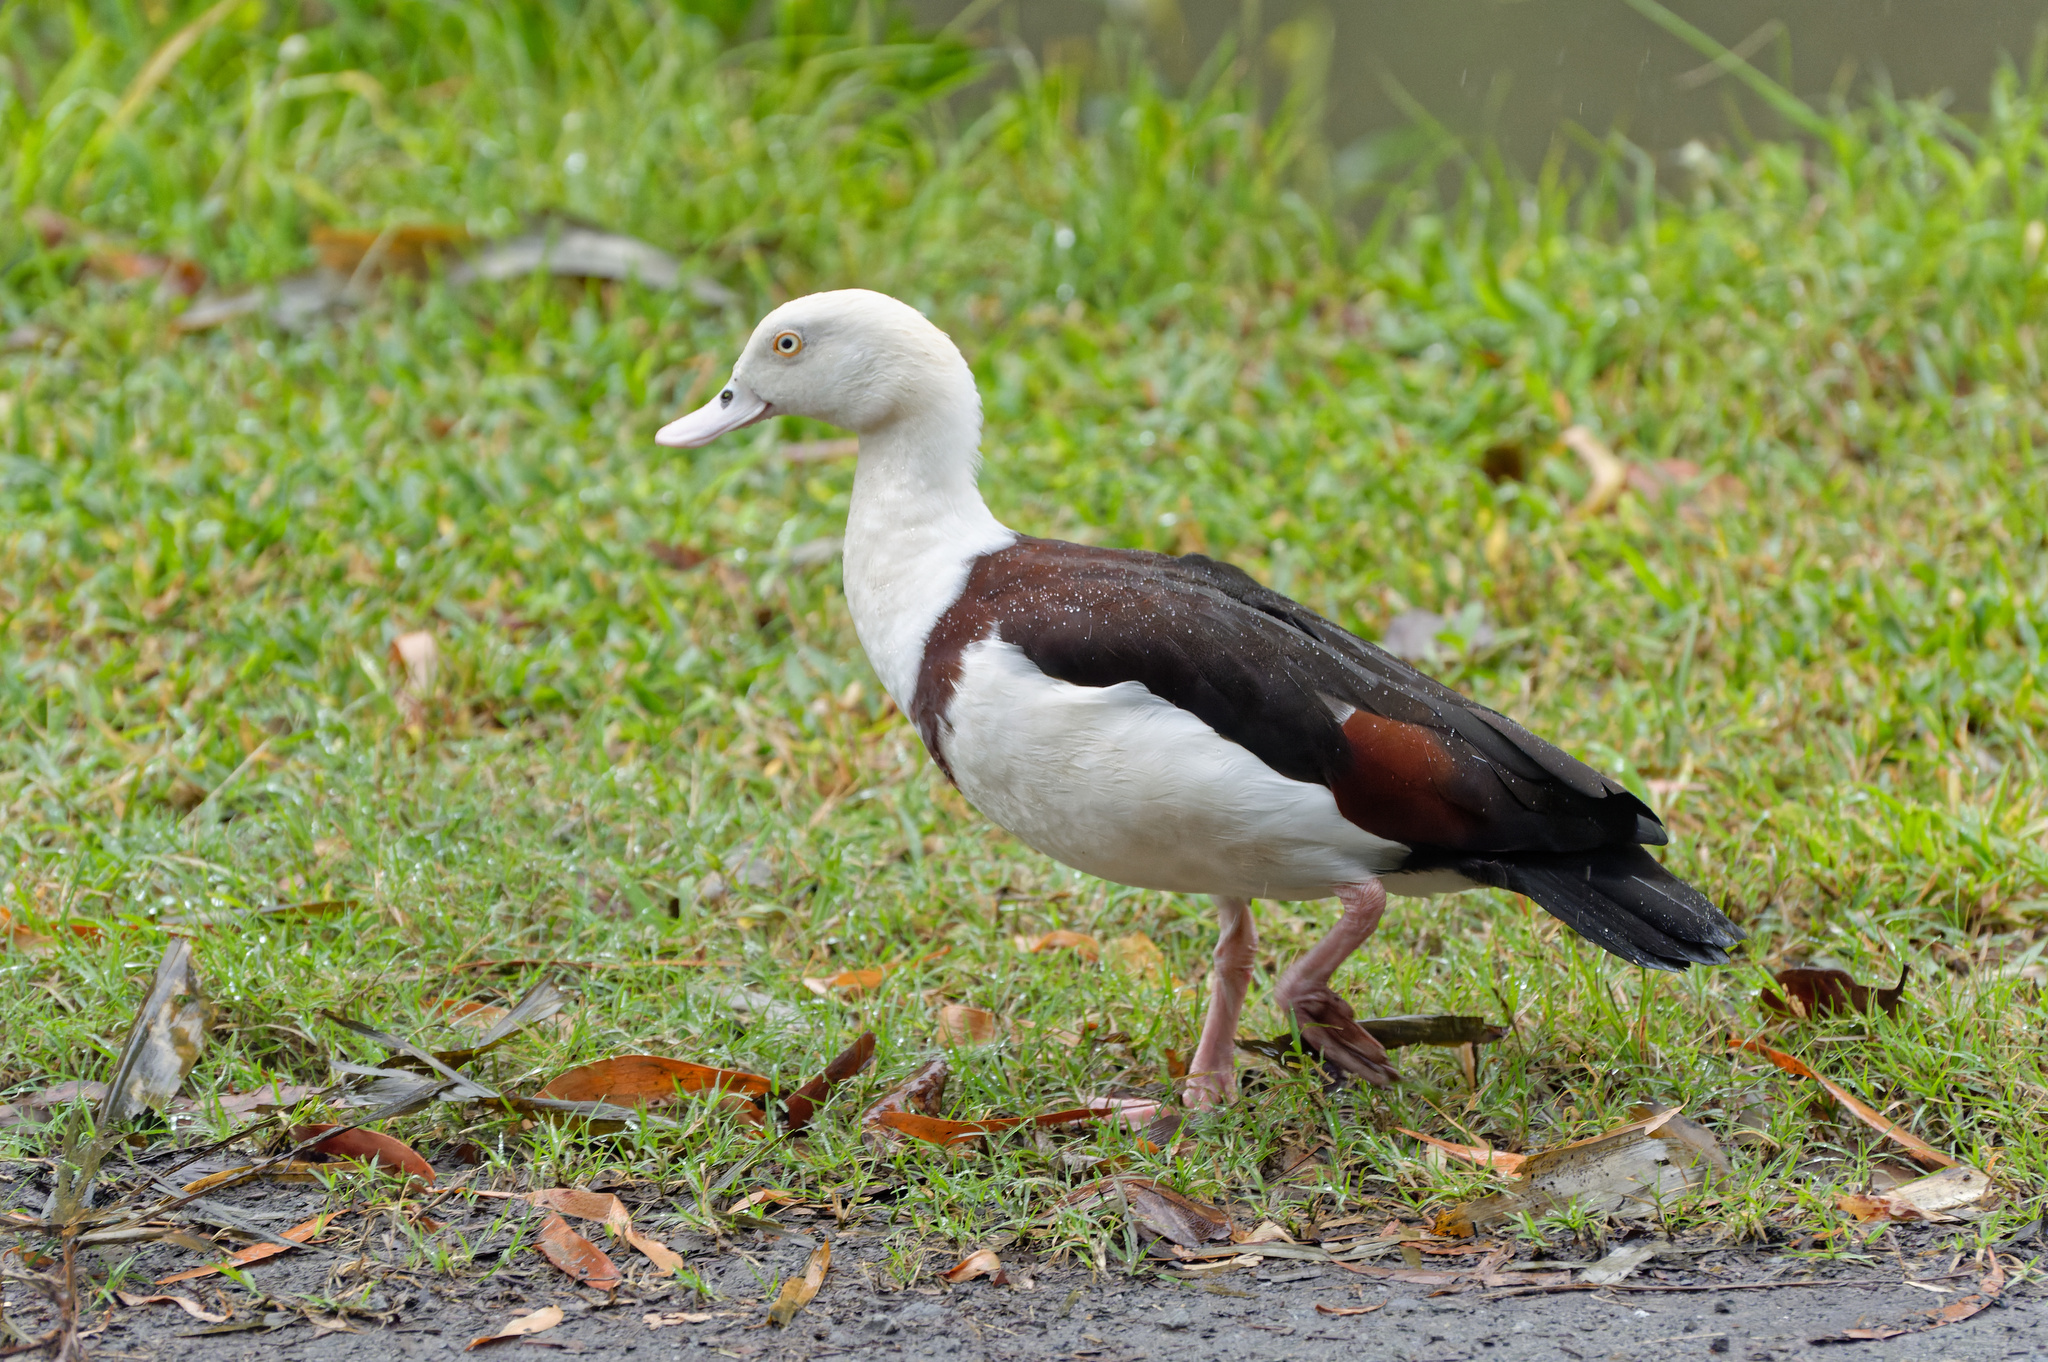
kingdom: Animalia
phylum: Chordata
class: Aves
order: Anseriformes
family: Anatidae
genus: Radjah
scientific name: Radjah radjah
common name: Radjah shelduck
